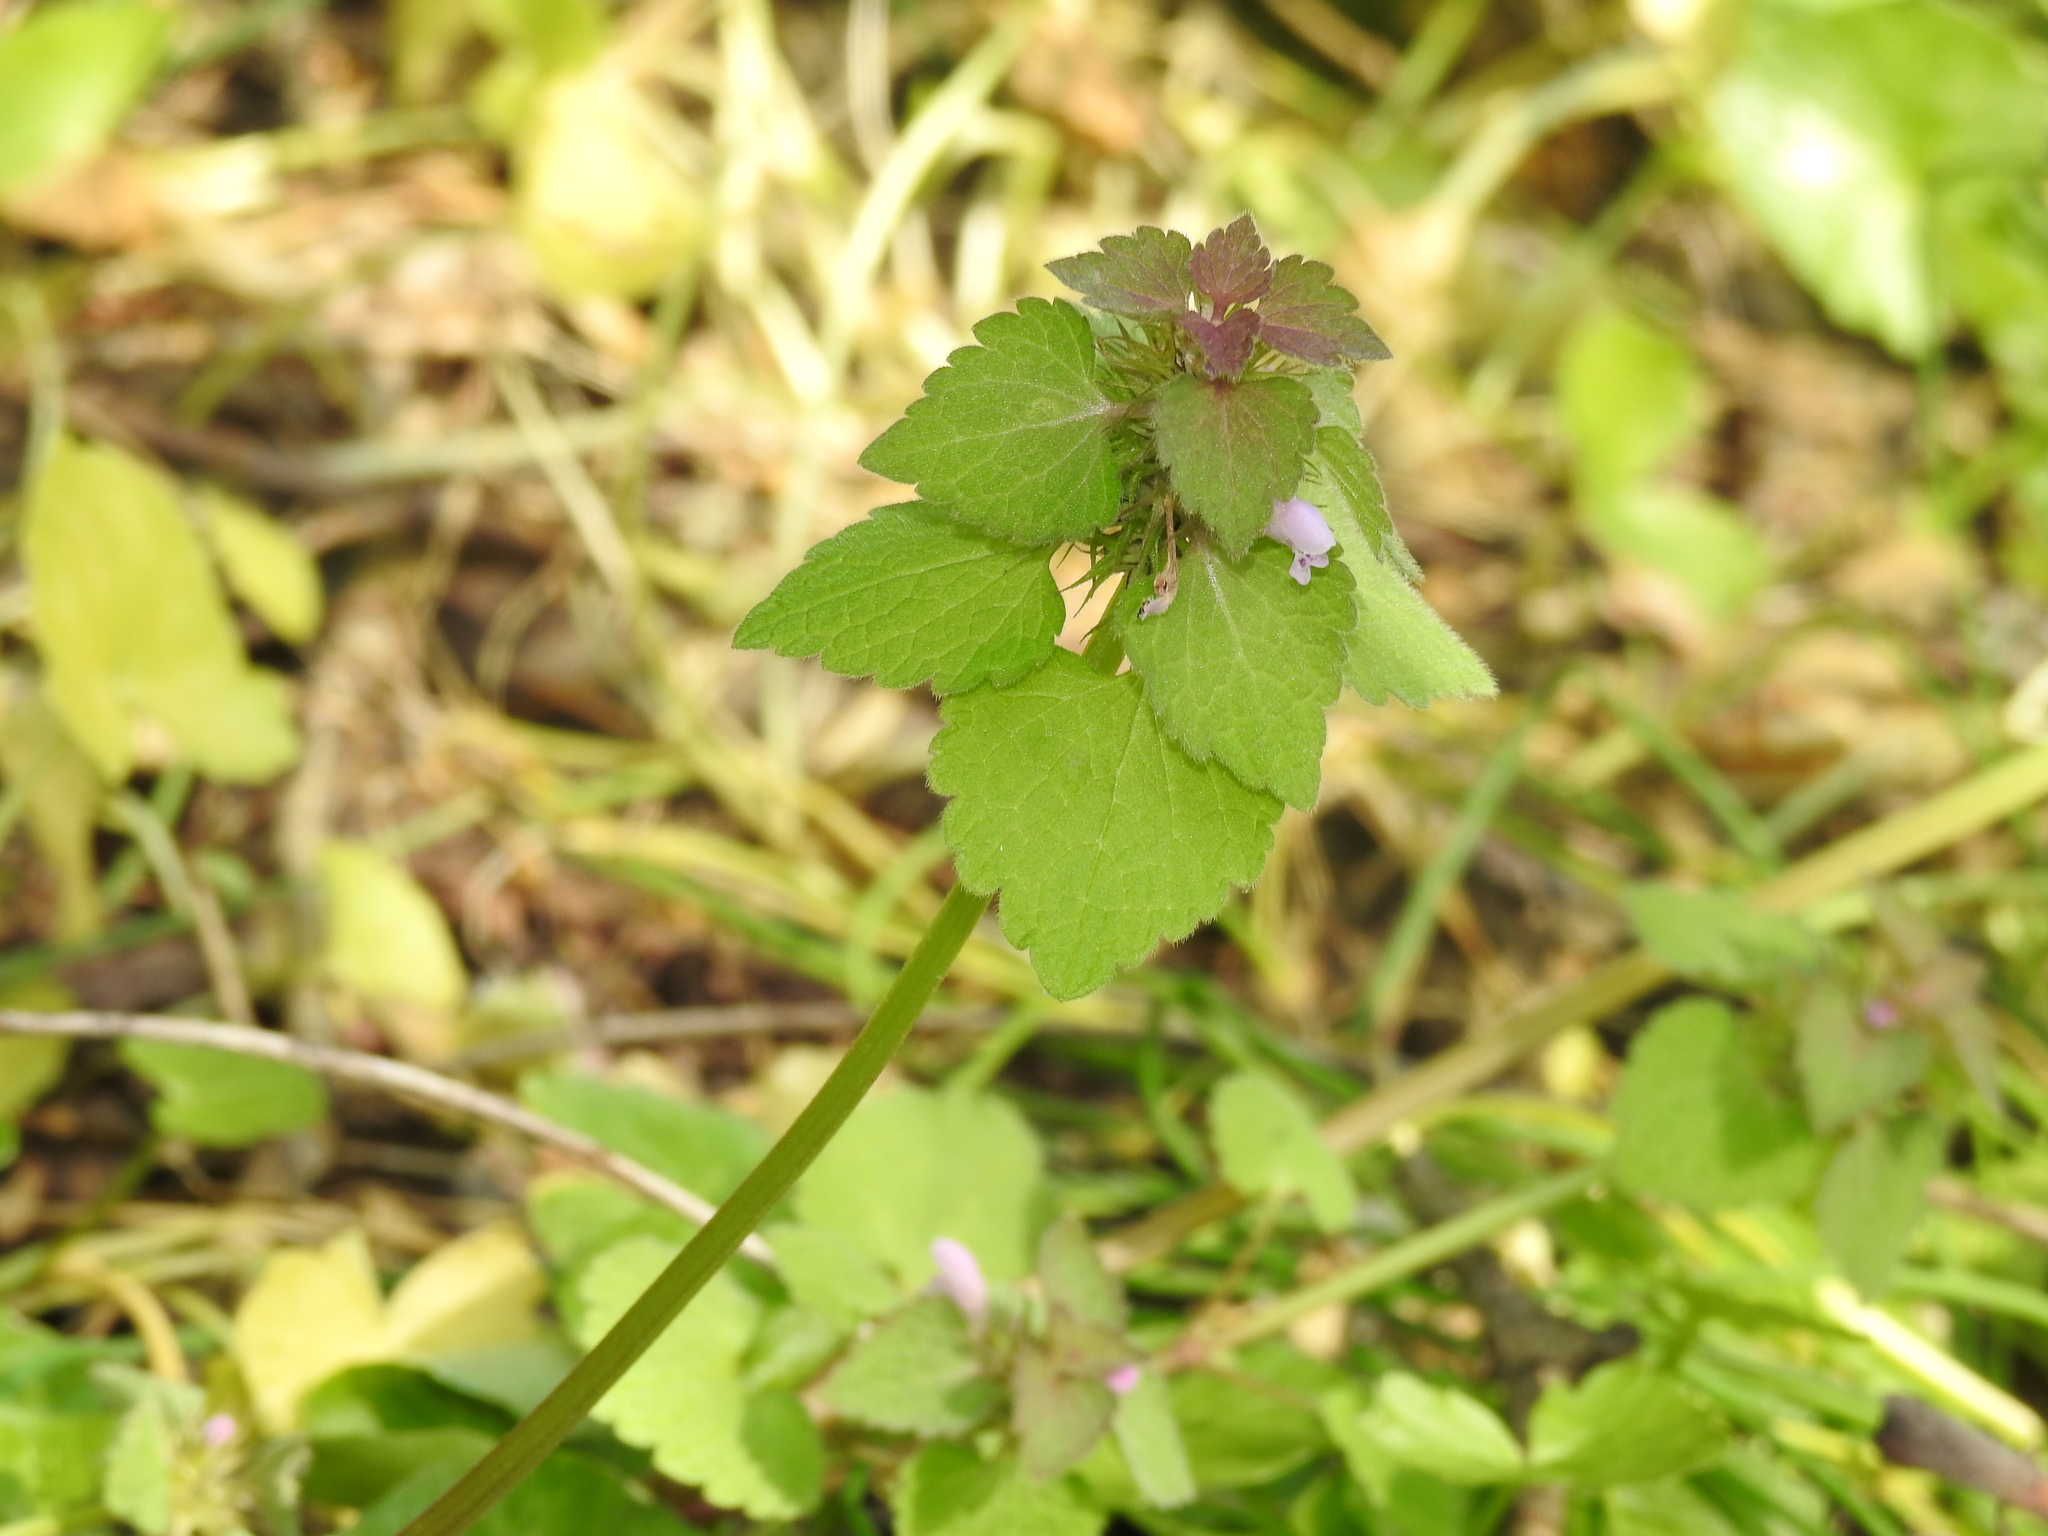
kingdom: Plantae
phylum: Tracheophyta
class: Magnoliopsida
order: Lamiales
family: Lamiaceae
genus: Lamium
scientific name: Lamium purpureum
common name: Red dead-nettle
